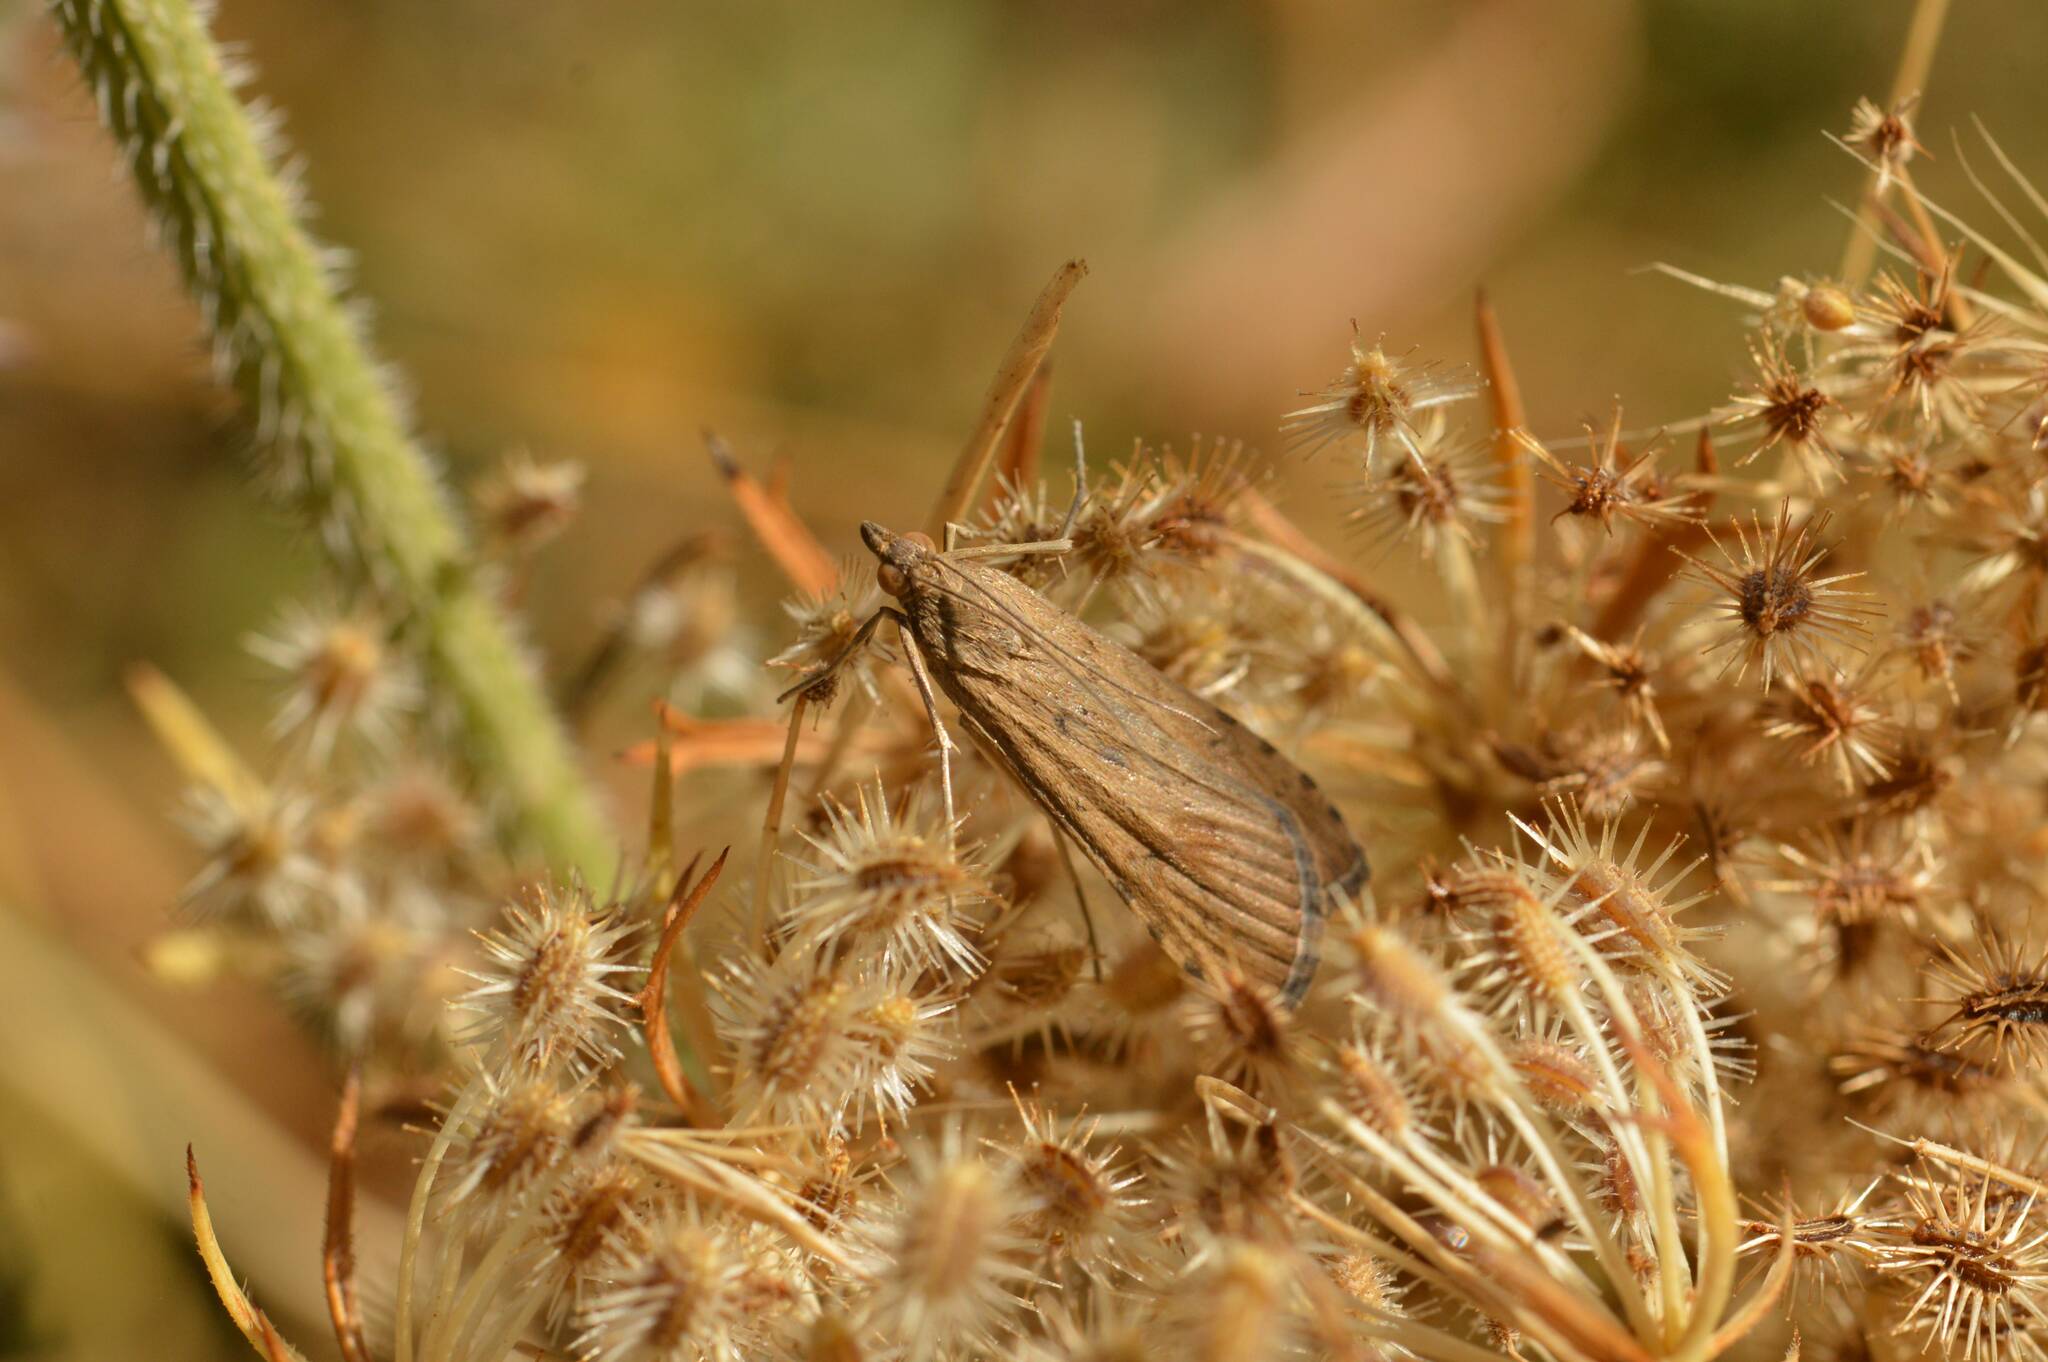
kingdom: Animalia
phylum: Arthropoda
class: Insecta
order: Lepidoptera
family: Crambidae
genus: Nomophila
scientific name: Nomophila noctuella
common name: Rush veneer
